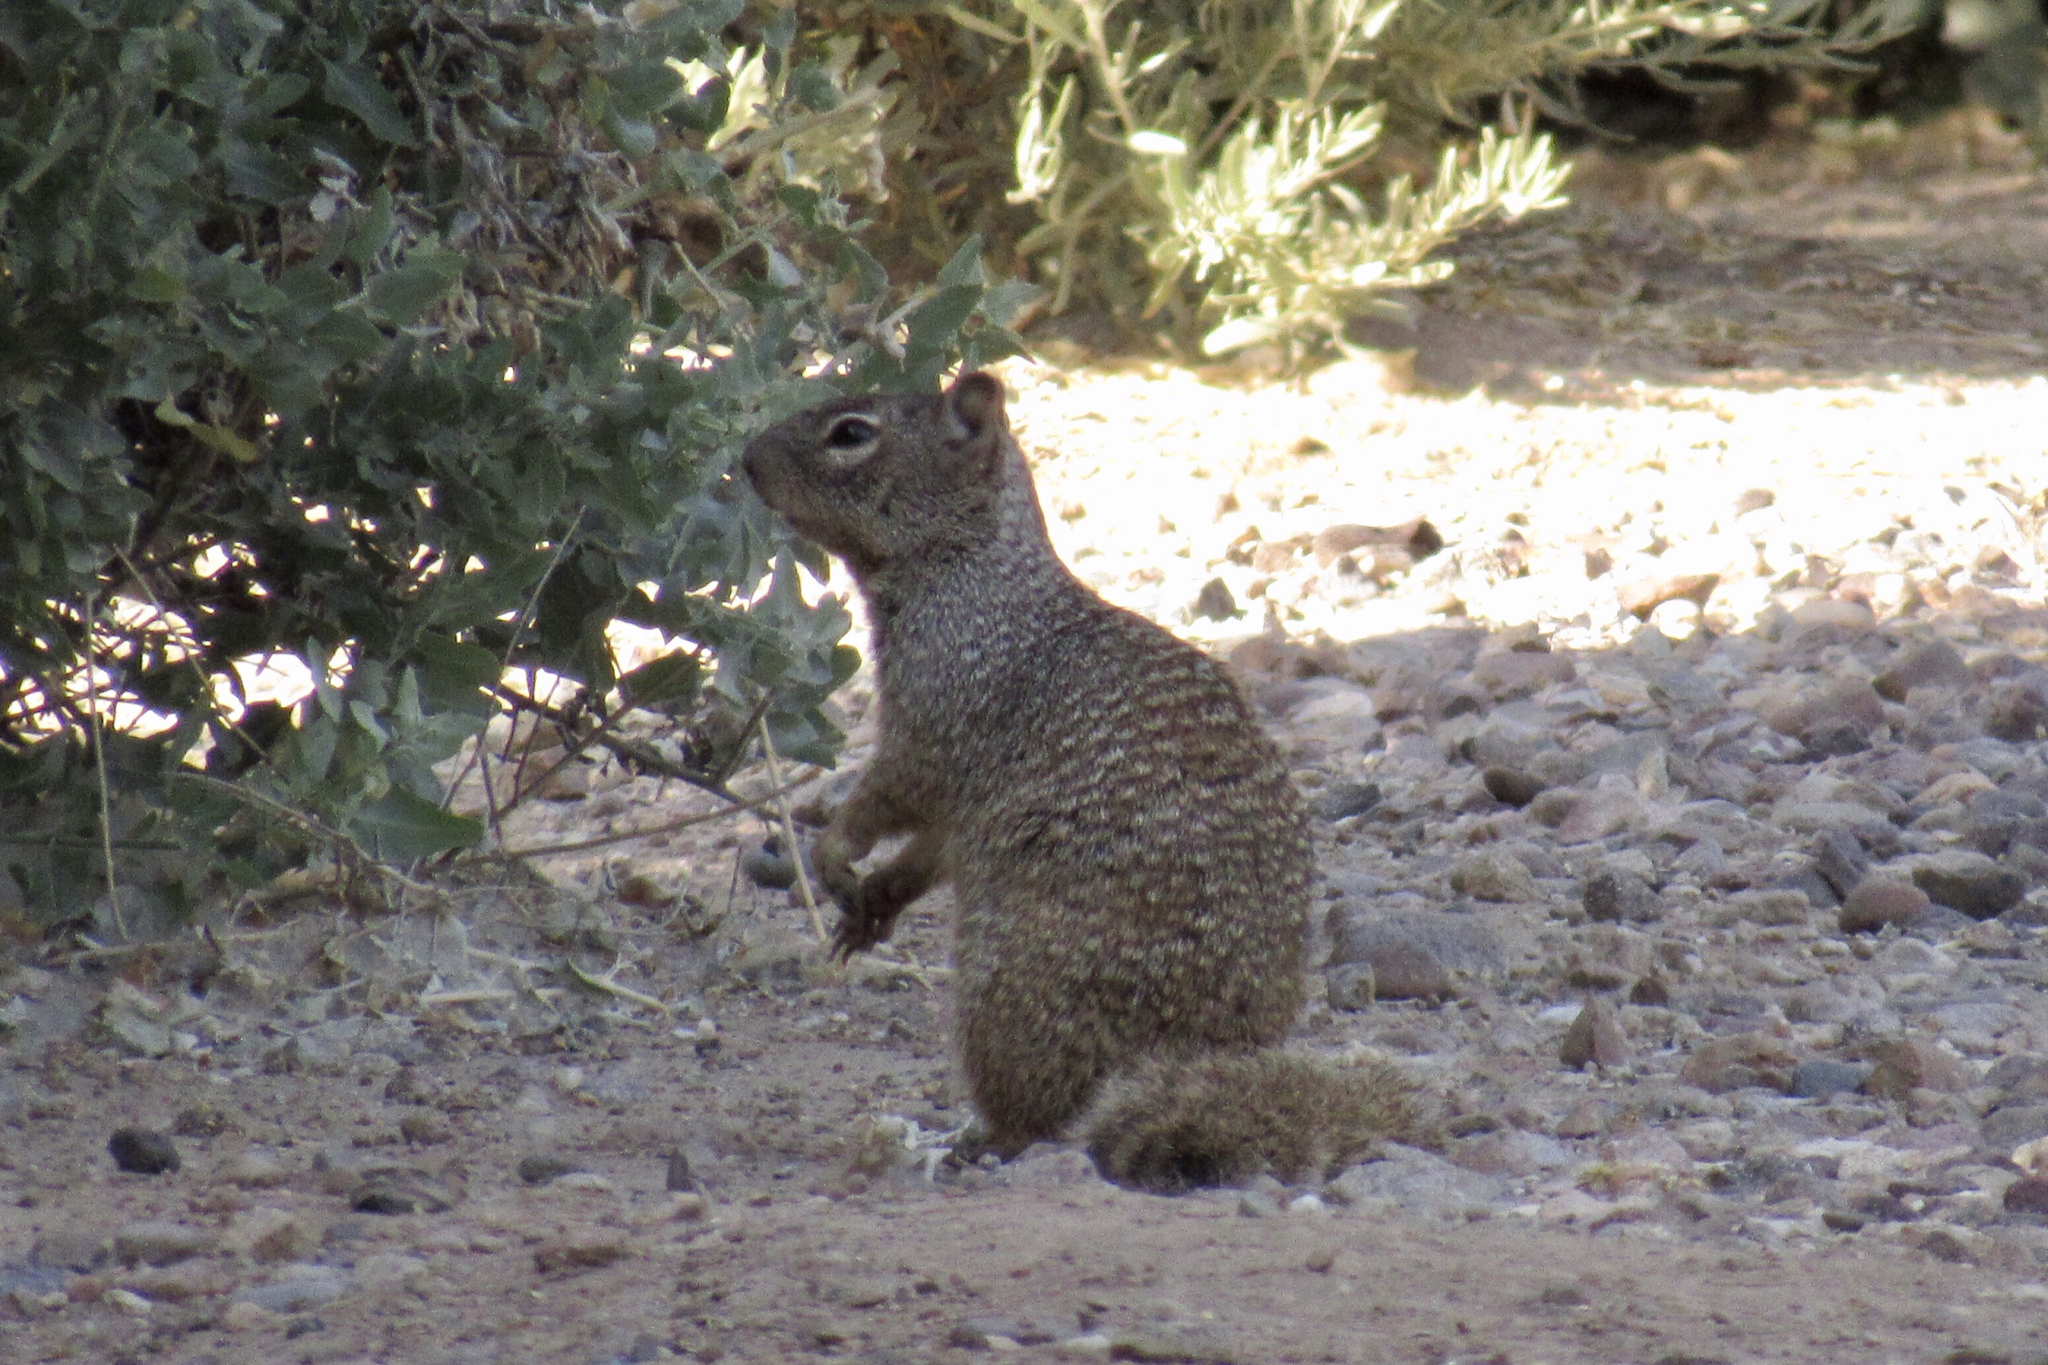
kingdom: Animalia
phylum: Chordata
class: Mammalia
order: Rodentia
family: Sciuridae
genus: Otospermophilus
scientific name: Otospermophilus variegatus
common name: Rock squirrel
